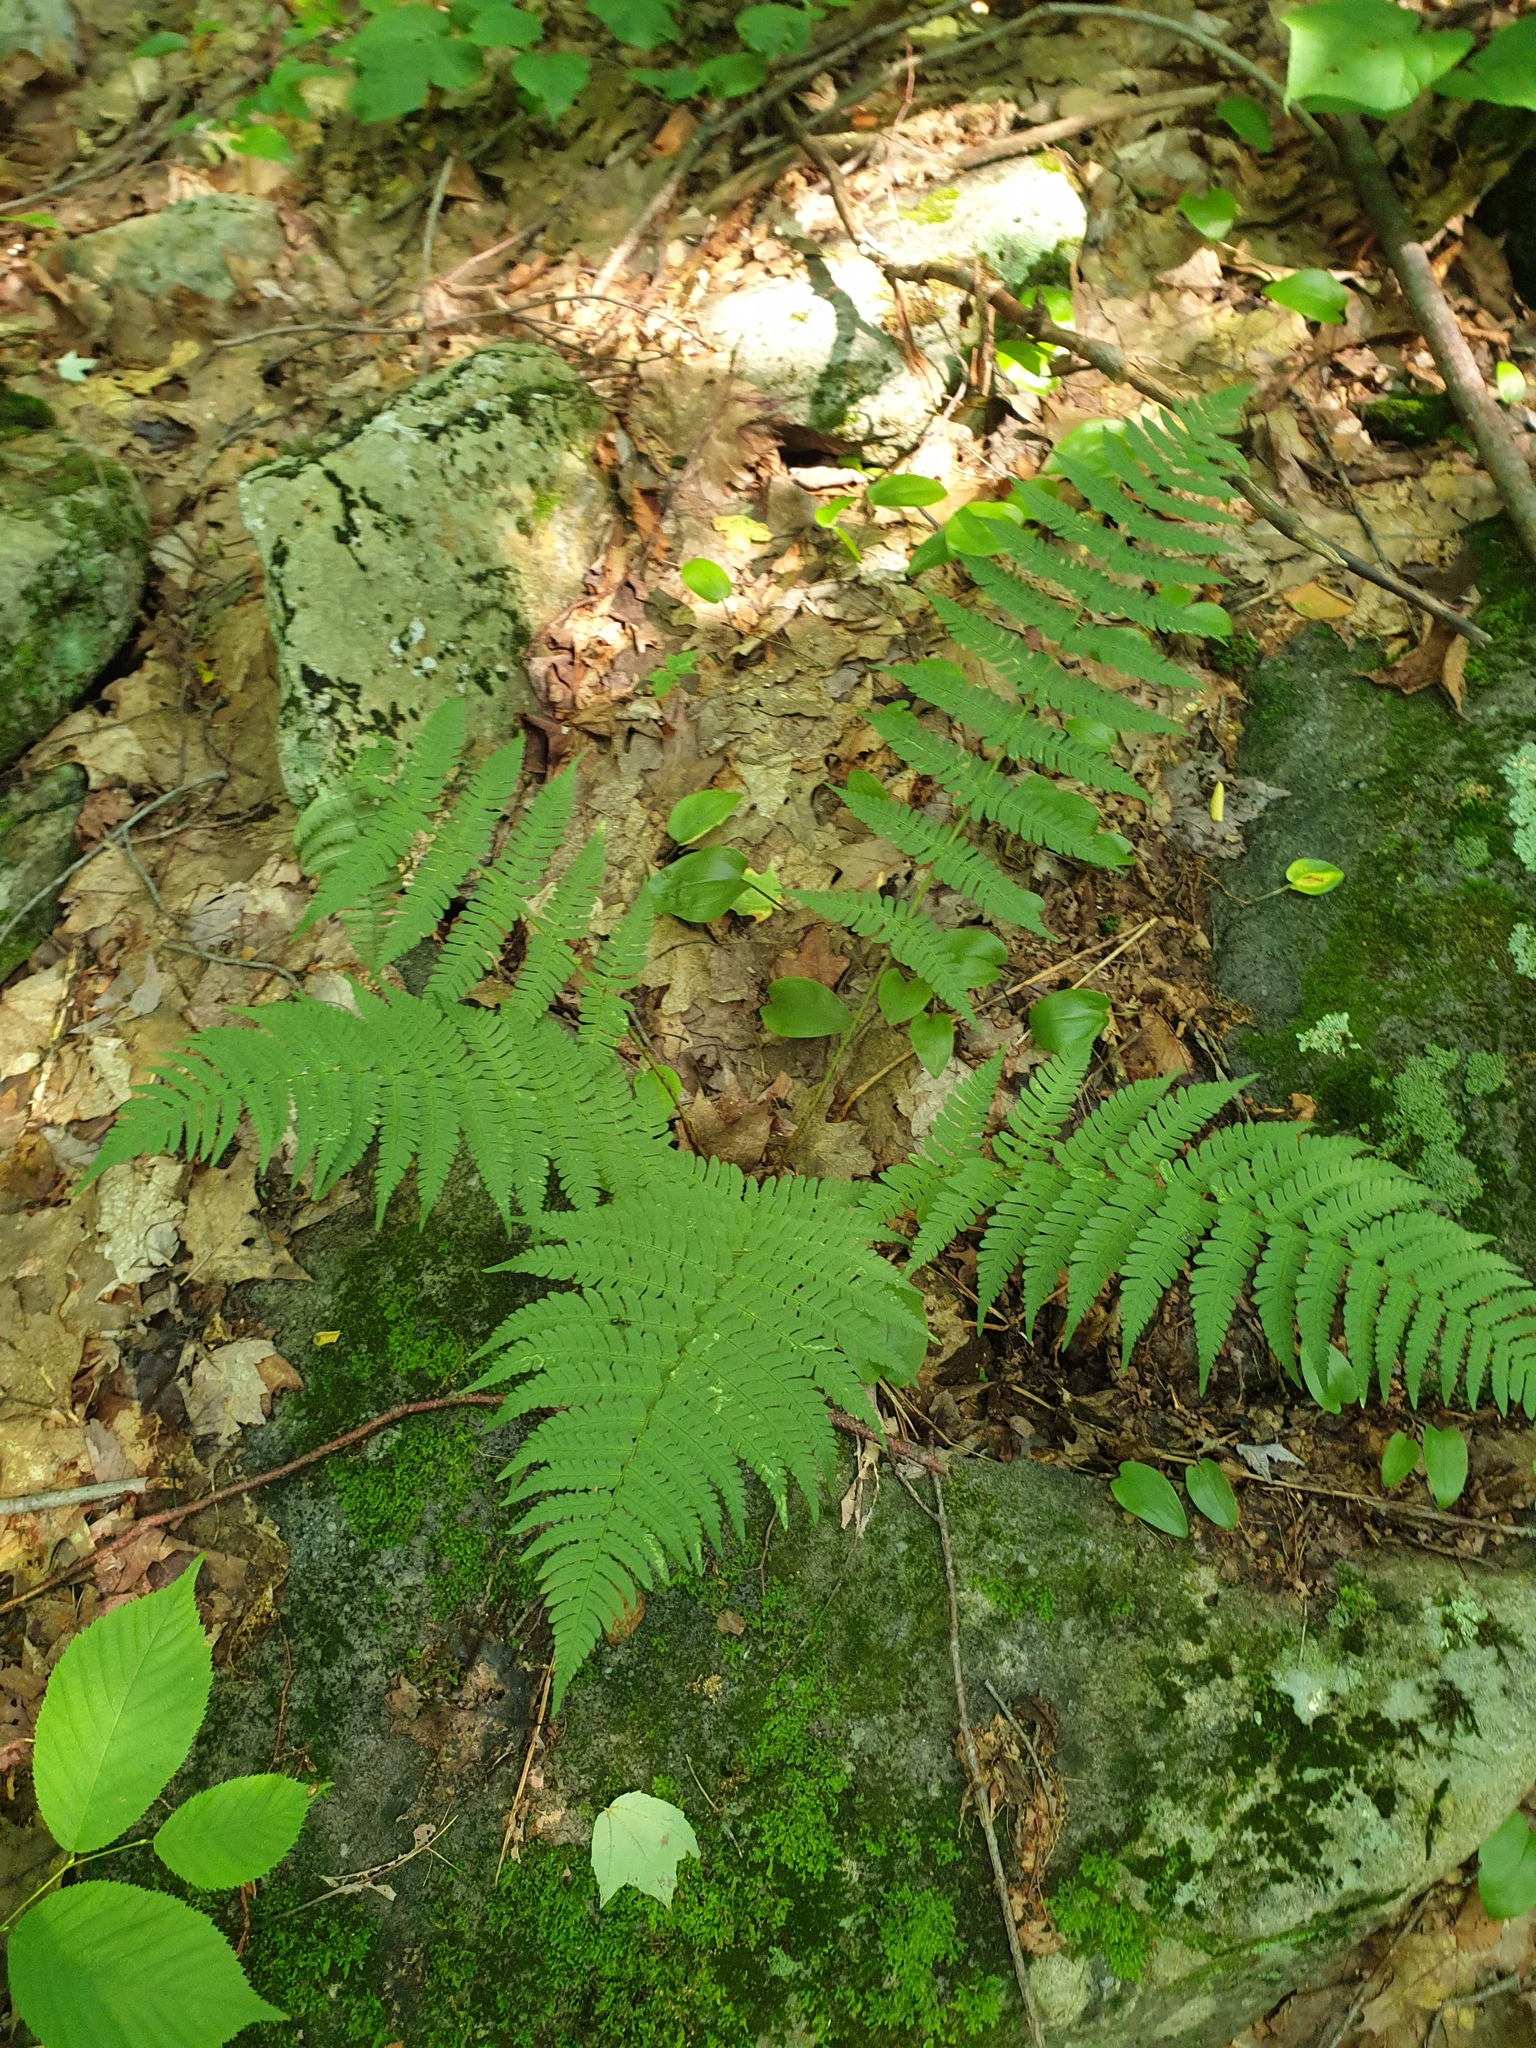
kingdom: Plantae
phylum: Tracheophyta
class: Polypodiopsida
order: Polypodiales
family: Dryopteridaceae
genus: Dryopteris
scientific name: Dryopteris marginalis
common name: Marginal wood fern
